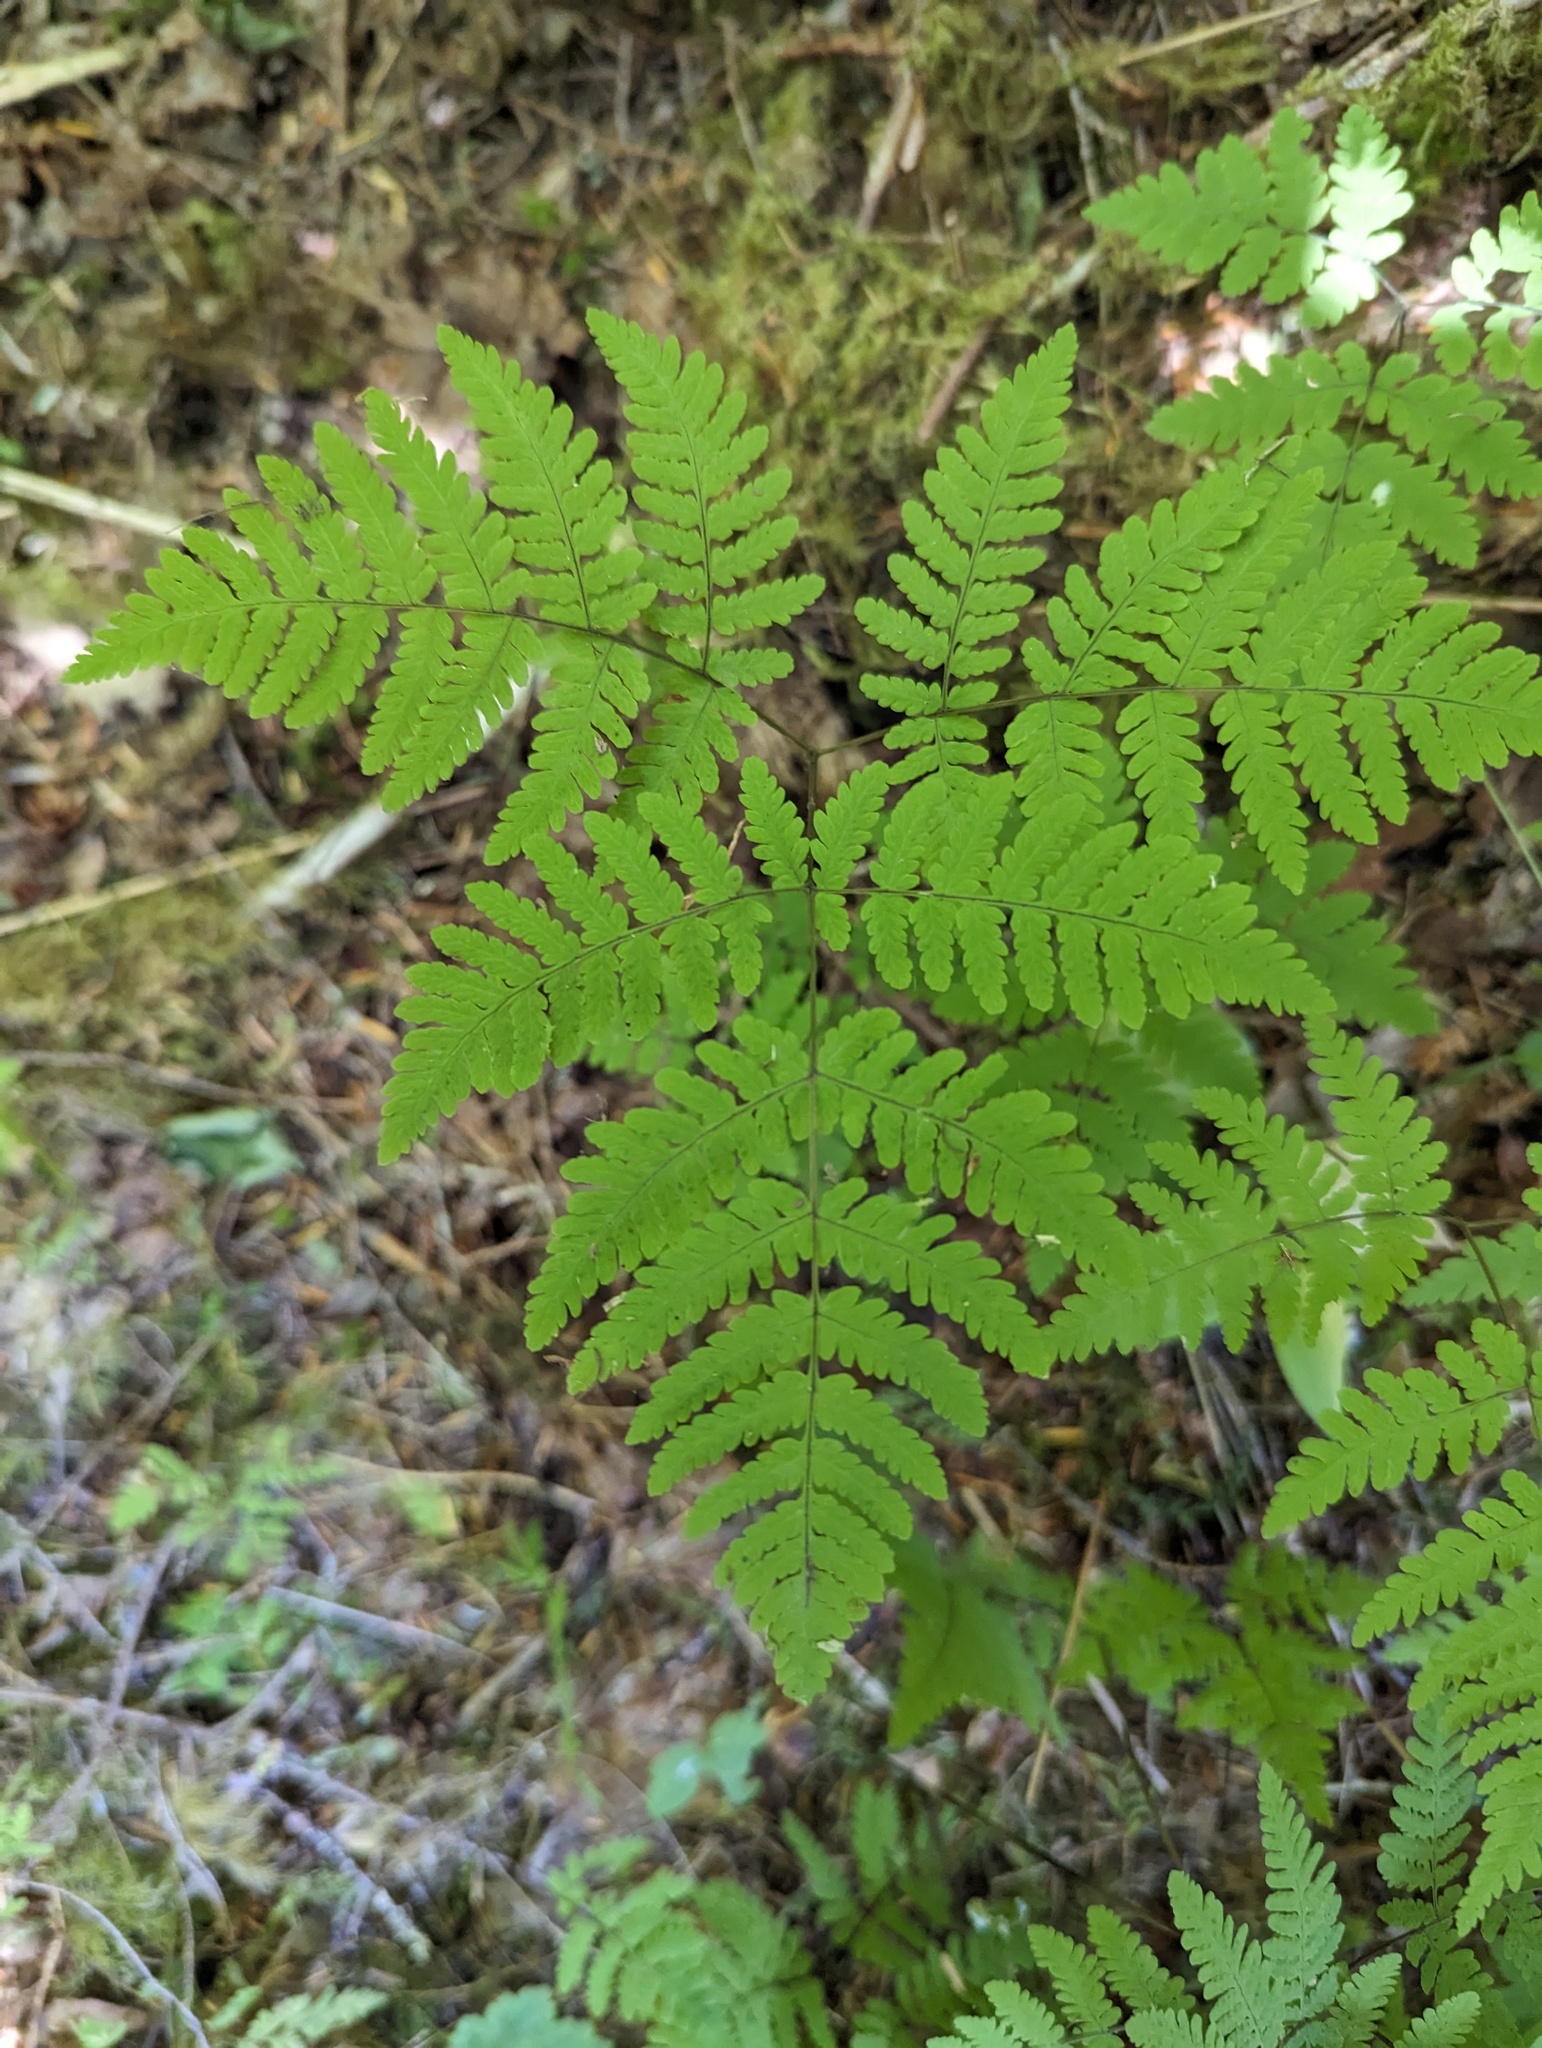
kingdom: Plantae
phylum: Tracheophyta
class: Polypodiopsida
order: Polypodiales
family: Cystopteridaceae
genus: Gymnocarpium
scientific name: Gymnocarpium disjunctum
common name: Western oak fern
